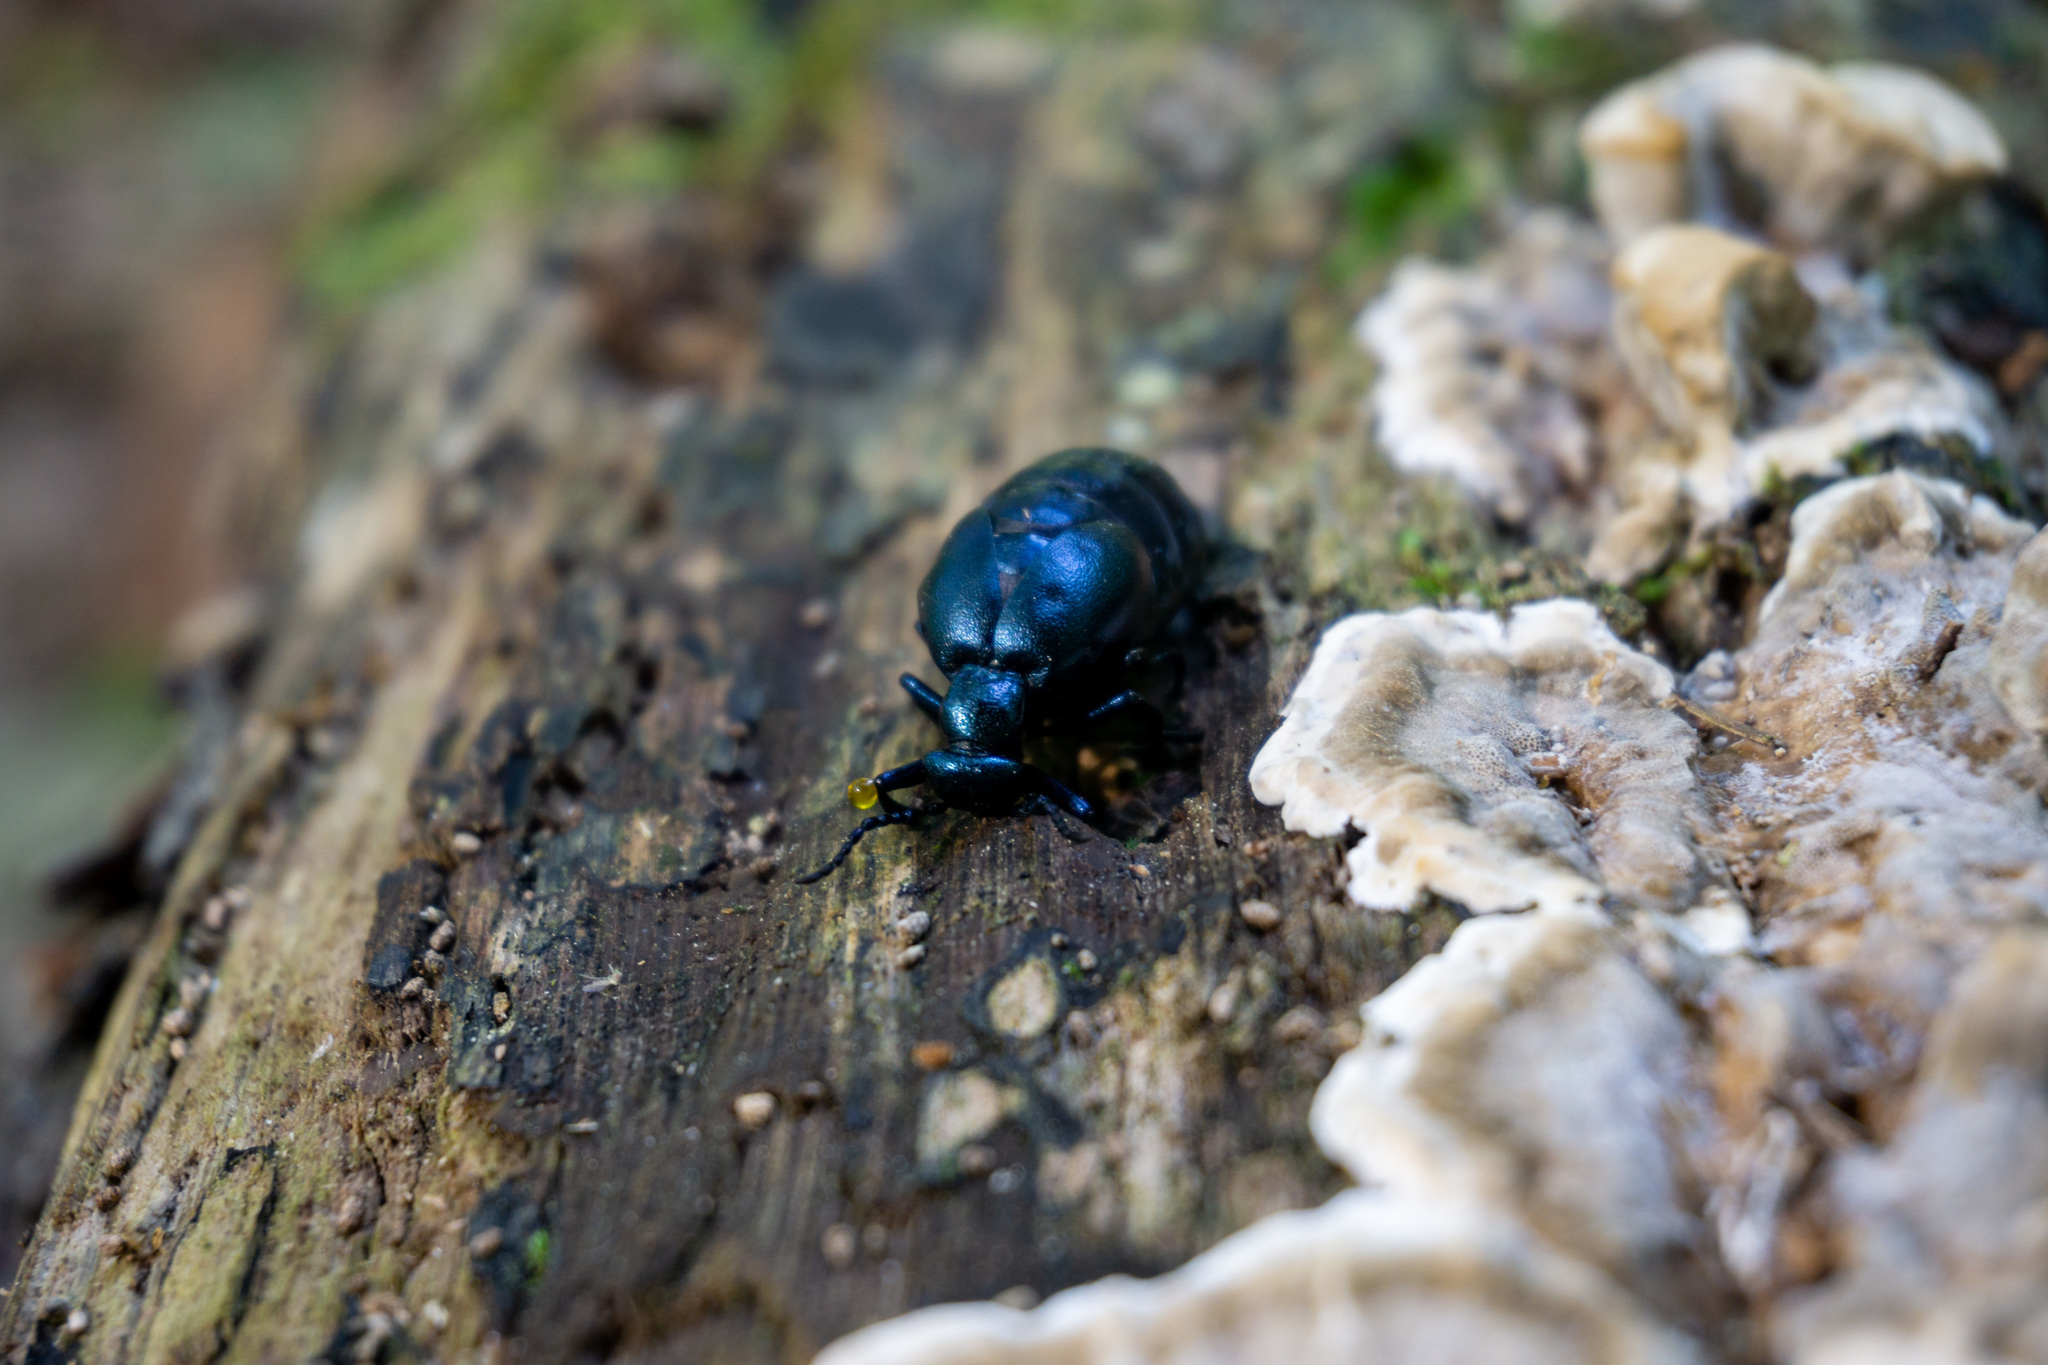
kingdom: Animalia
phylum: Arthropoda
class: Insecta
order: Coleoptera
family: Meloidae
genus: Meloe
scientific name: Meloe violaceus
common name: Violet oil-beetle
